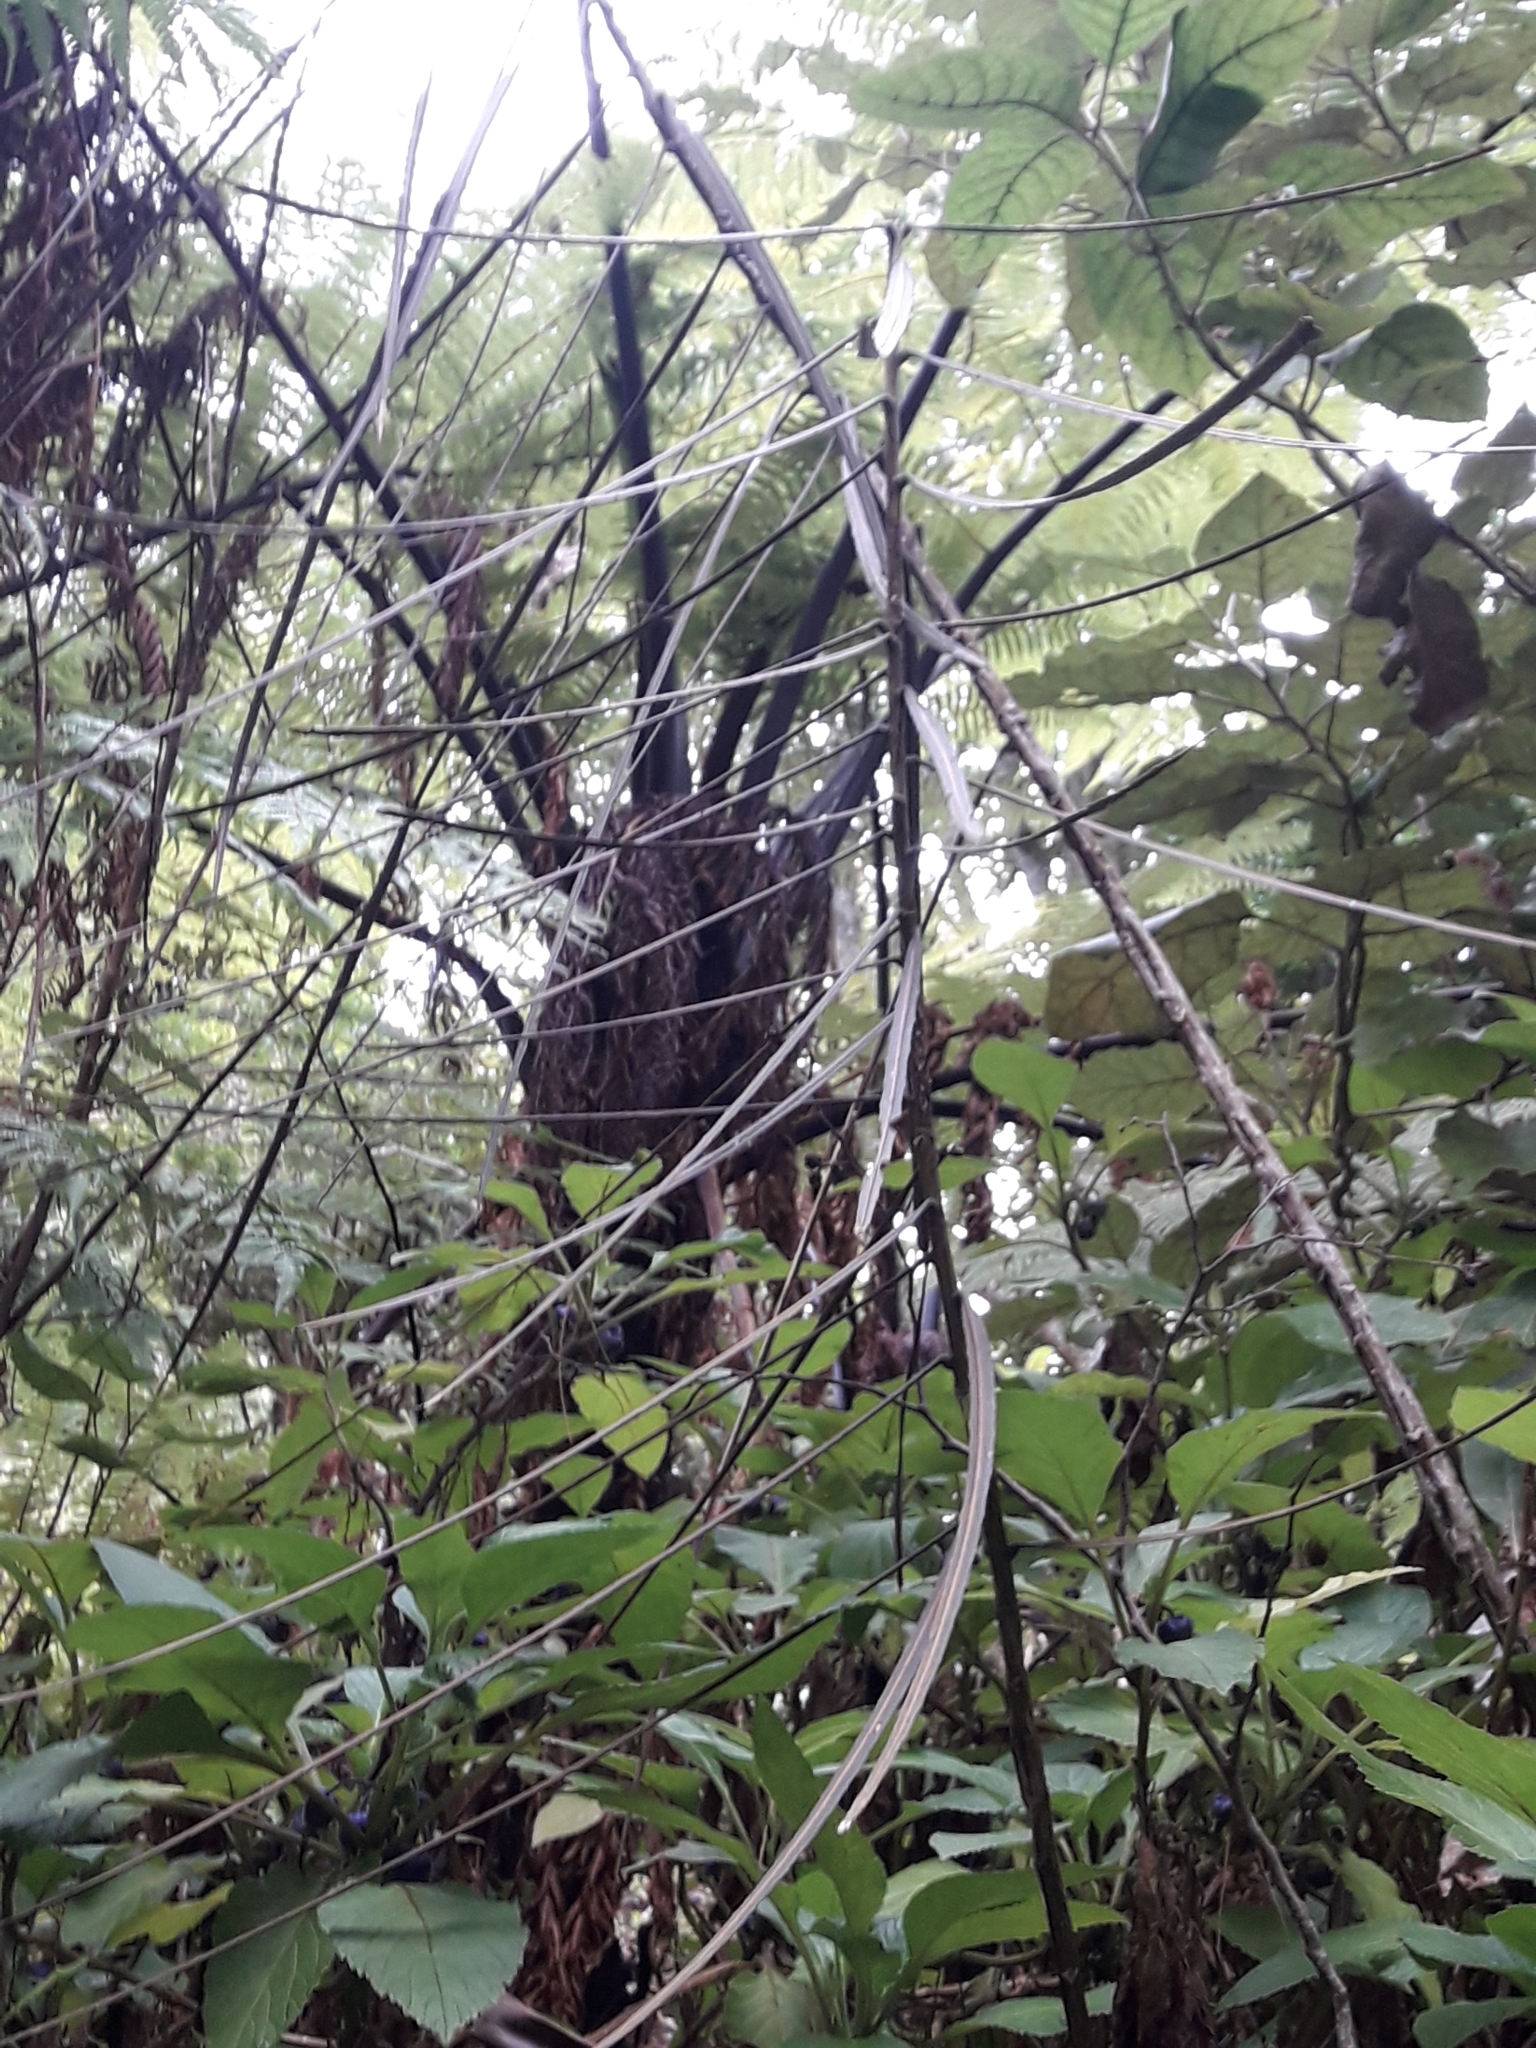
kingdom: Plantae
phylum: Tracheophyta
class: Magnoliopsida
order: Apiales
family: Araliaceae
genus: Pseudopanax
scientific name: Pseudopanax crassifolius
